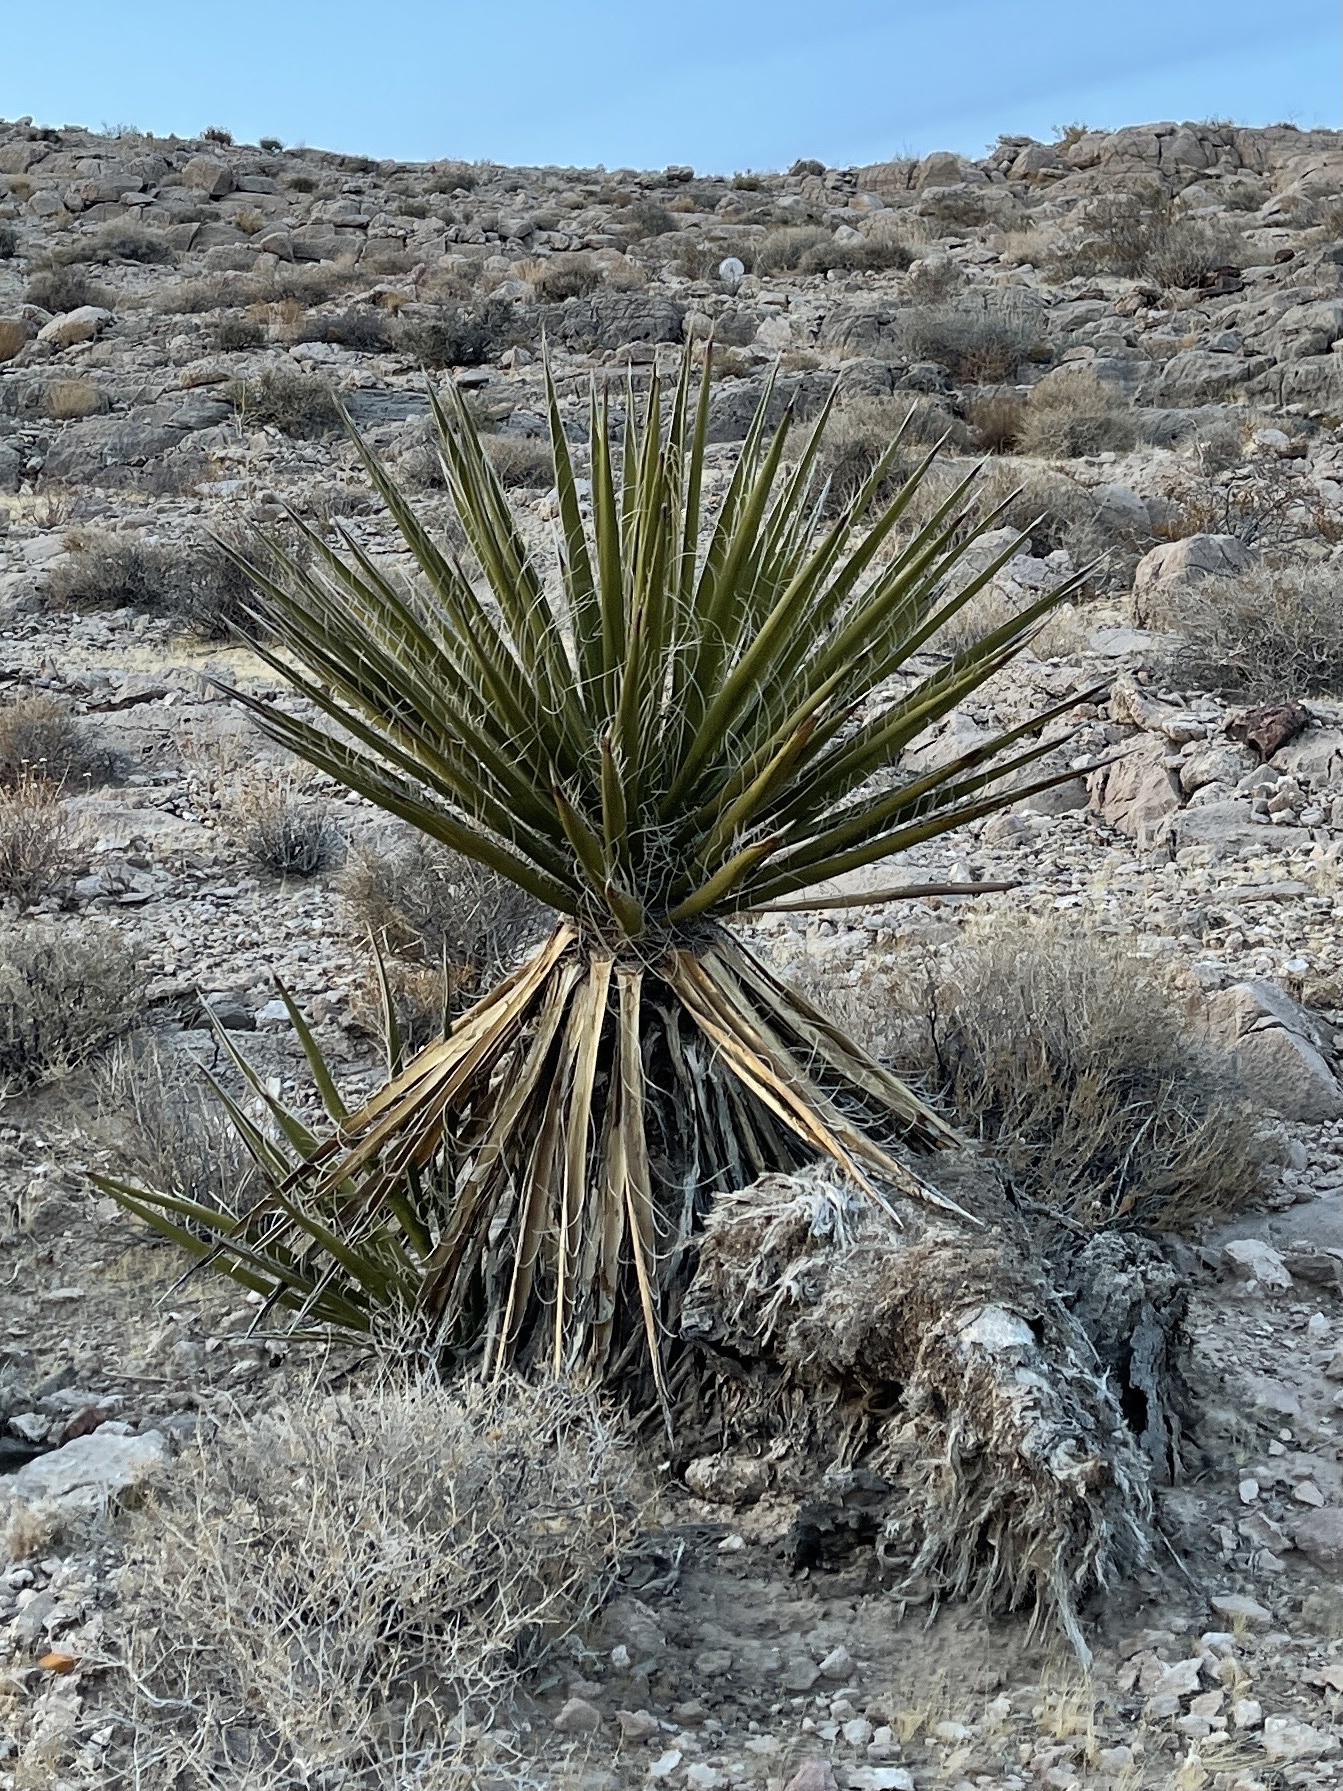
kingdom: Plantae
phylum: Tracheophyta
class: Liliopsida
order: Asparagales
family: Asparagaceae
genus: Yucca
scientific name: Yucca schidigera
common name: Mojave yucca
